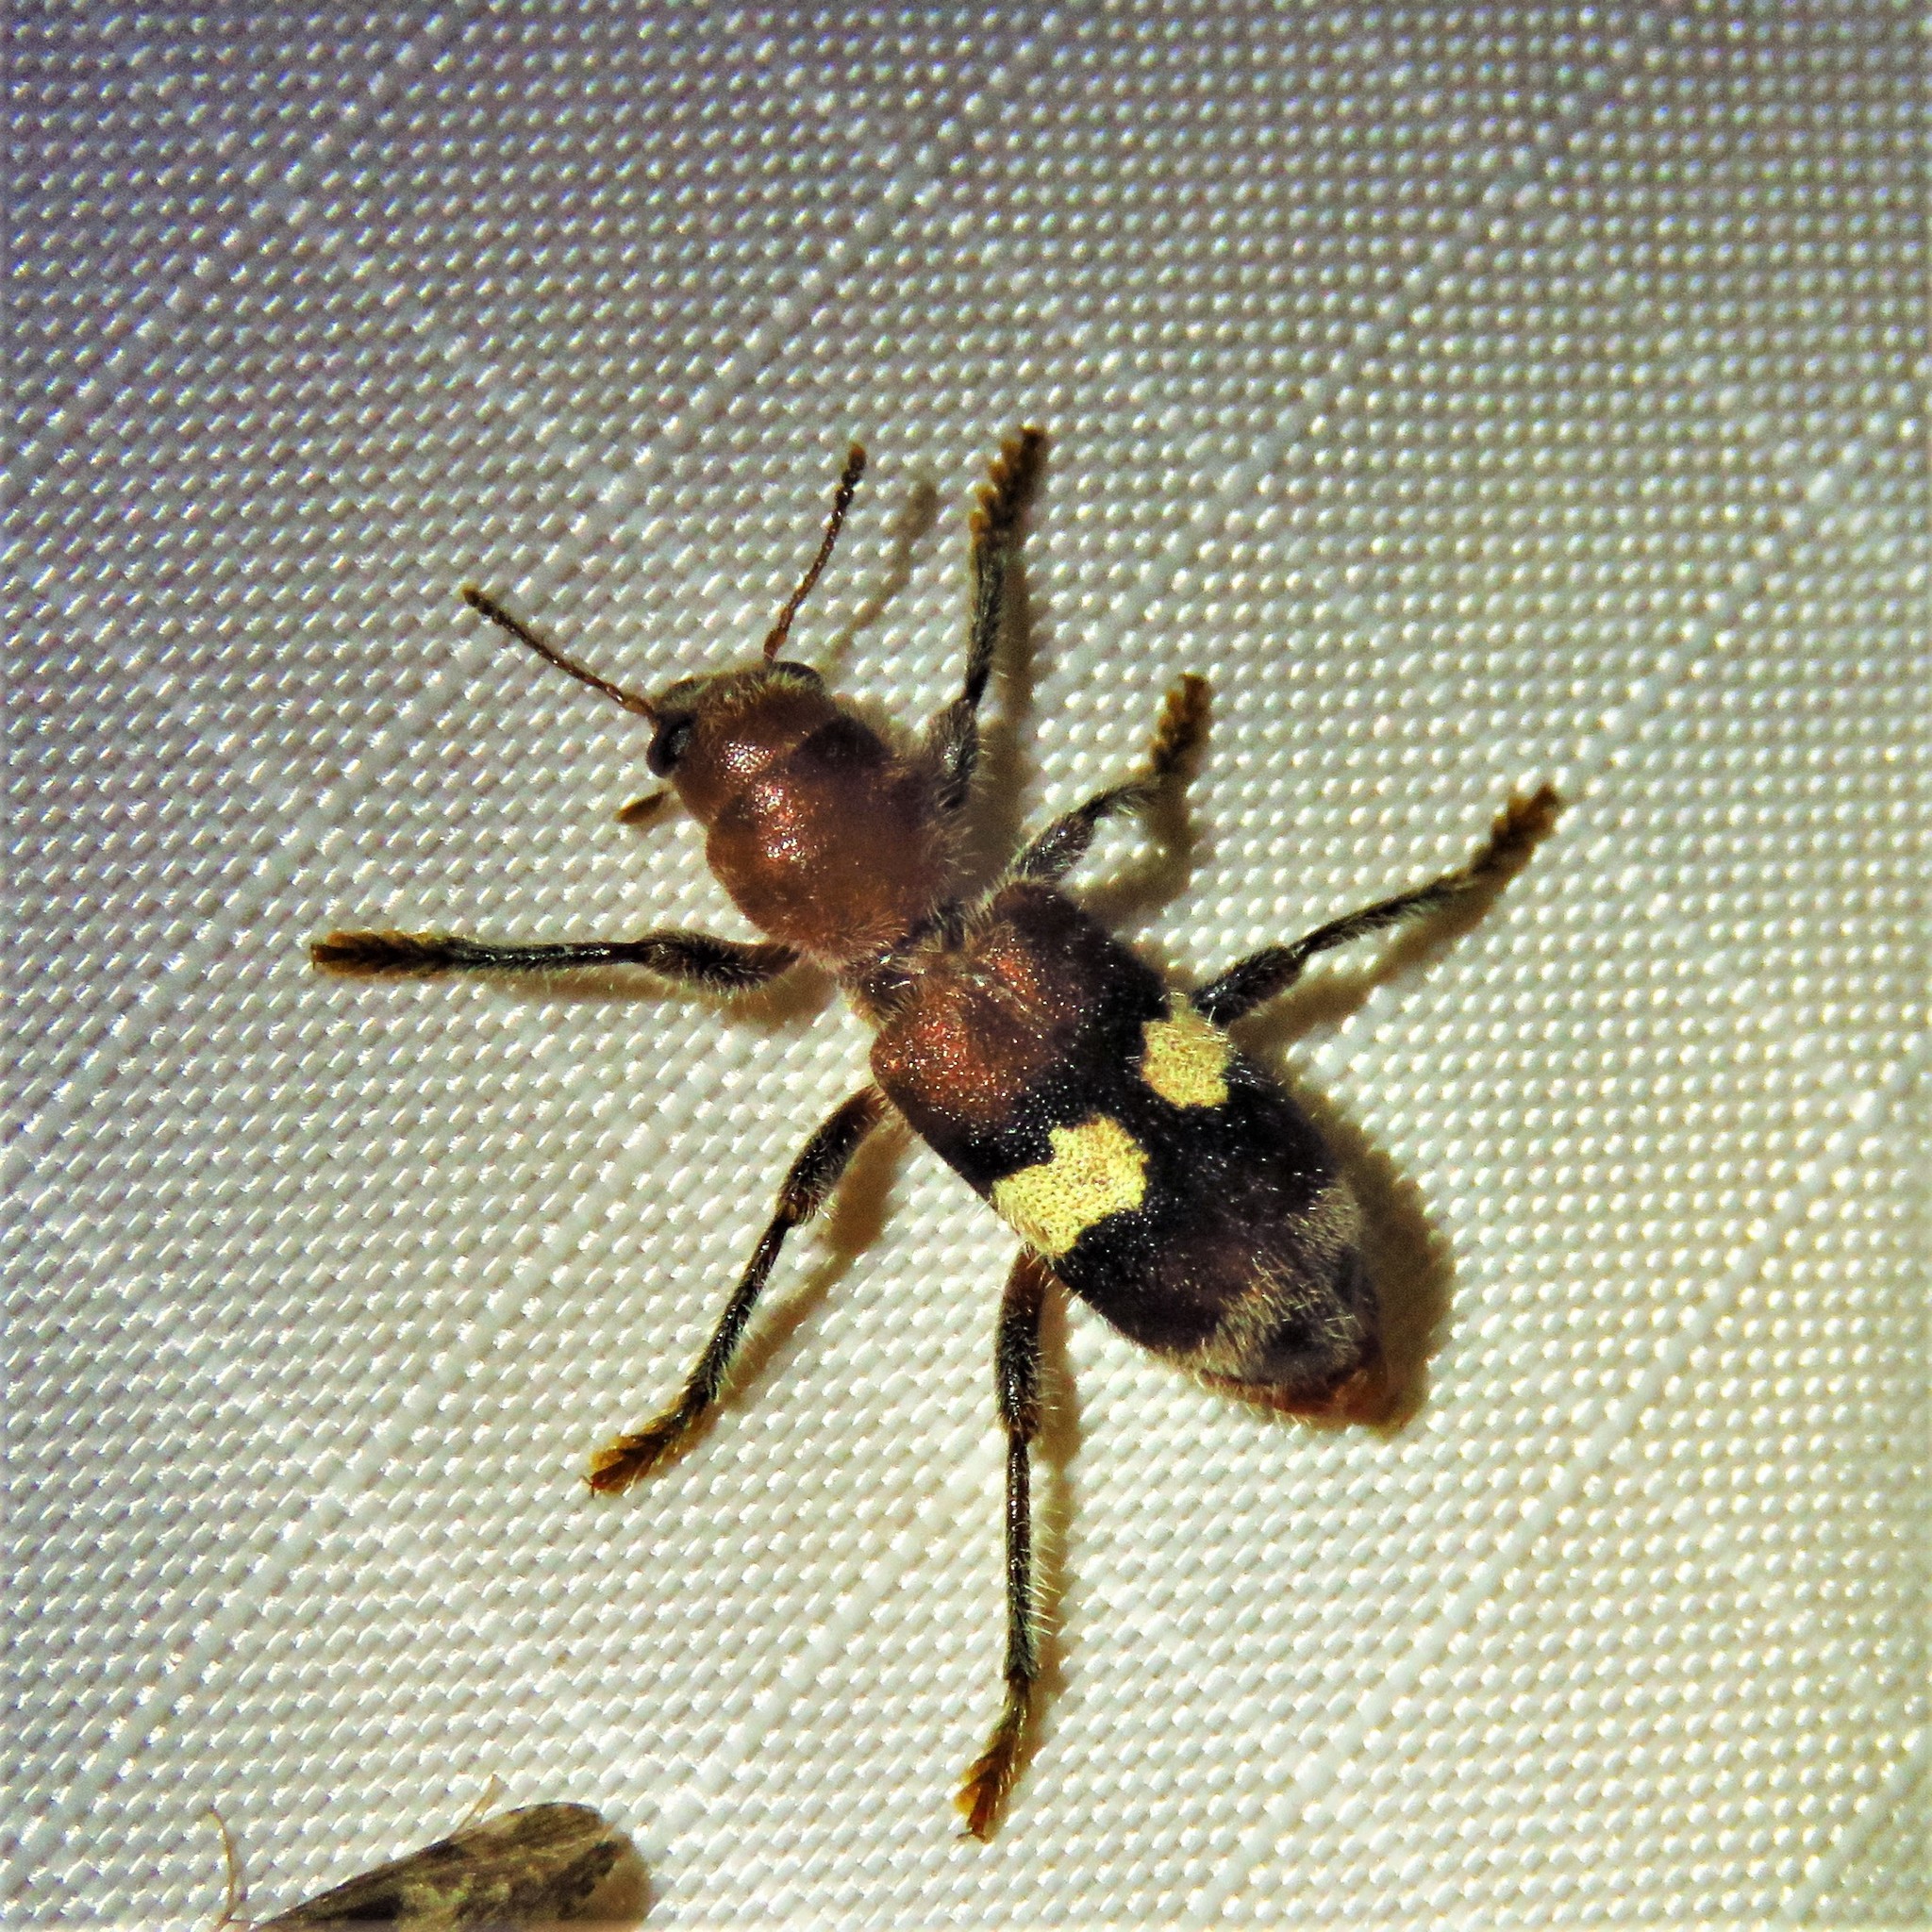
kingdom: Animalia
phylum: Arthropoda
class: Insecta
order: Coleoptera
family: Cleridae
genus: Enoclerus
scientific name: Enoclerus quadrisignatus
